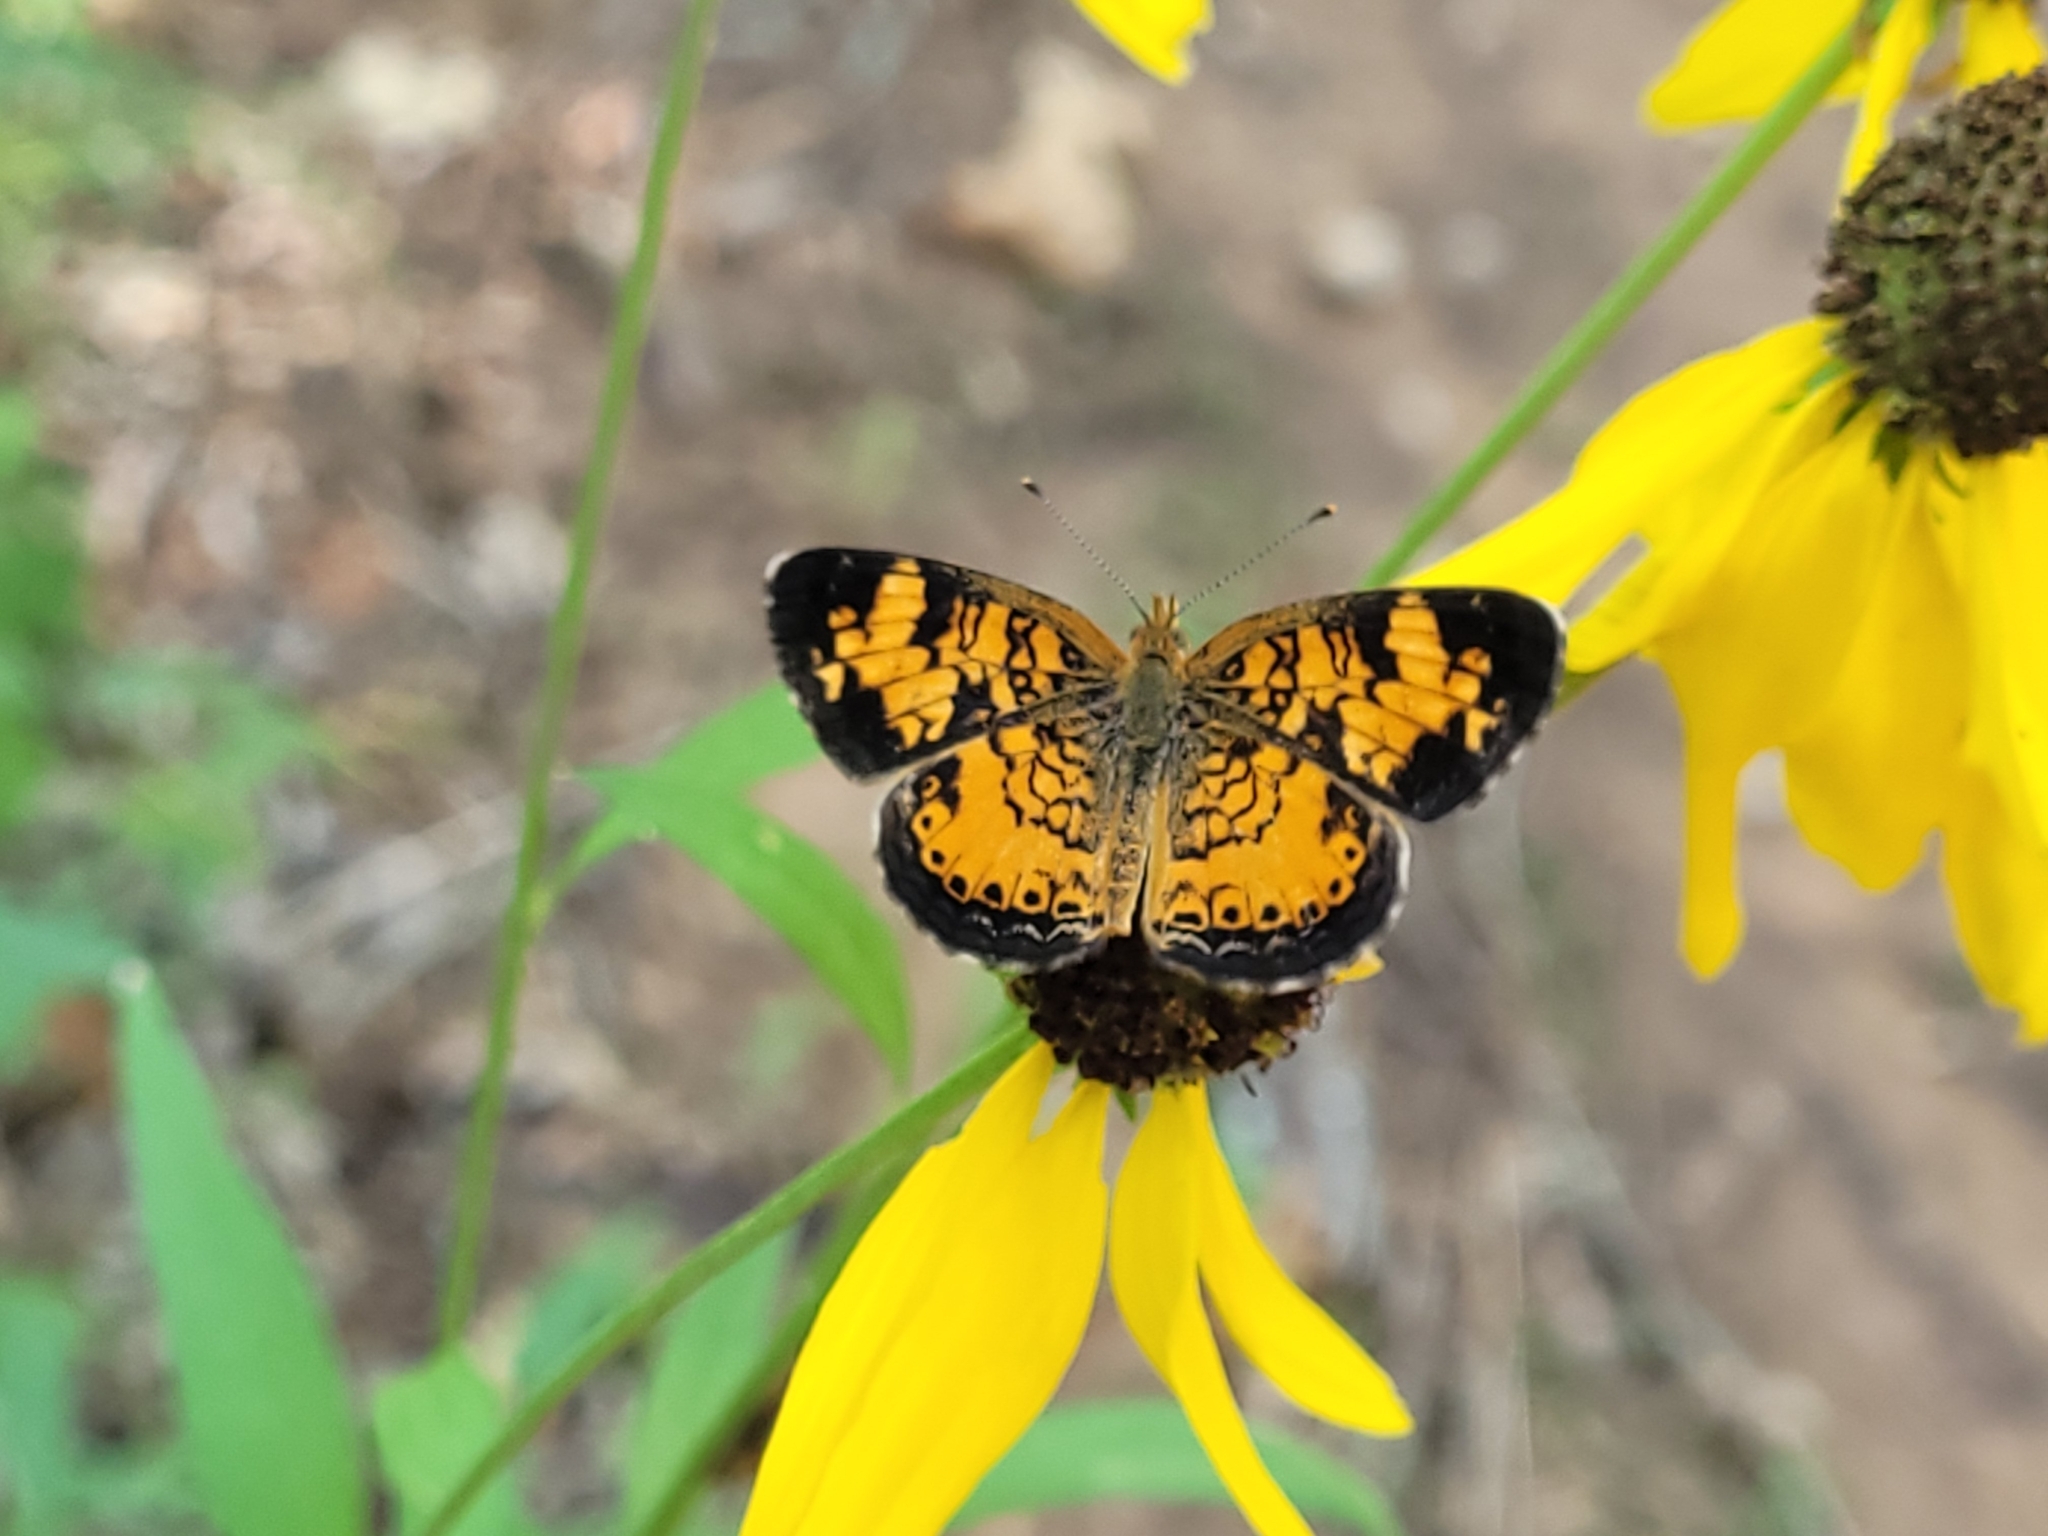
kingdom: Animalia
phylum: Arthropoda
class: Insecta
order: Lepidoptera
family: Nymphalidae
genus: Phyciodes
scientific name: Phyciodes tharos
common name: Pearl crescent
